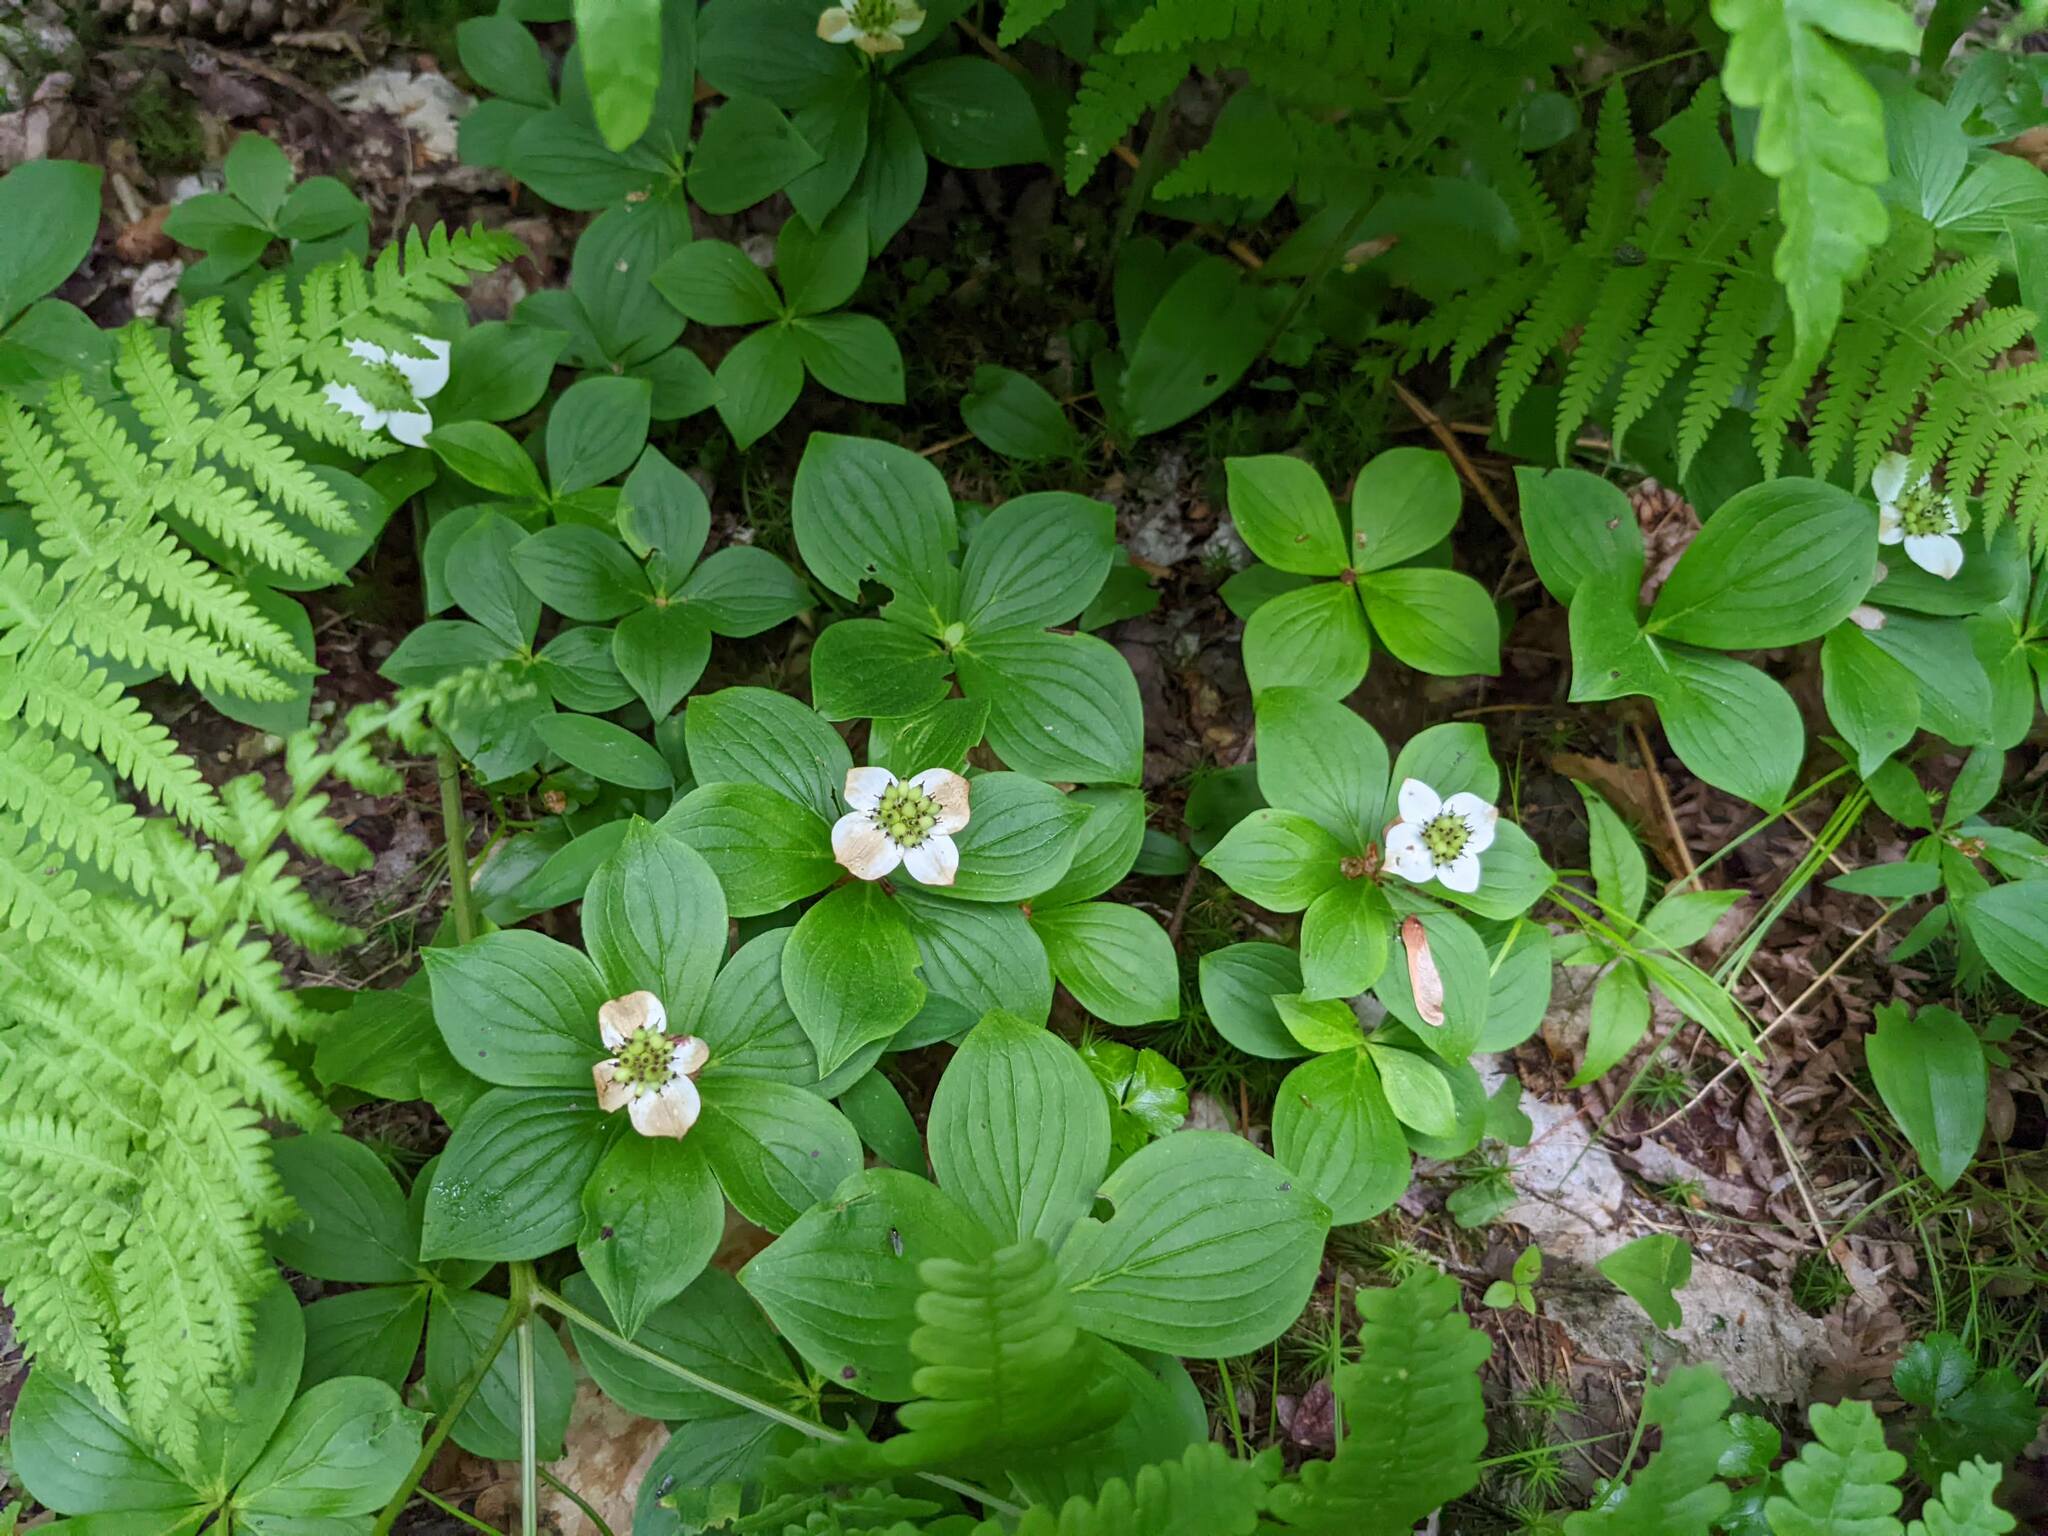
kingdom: Plantae
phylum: Tracheophyta
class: Magnoliopsida
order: Cornales
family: Cornaceae
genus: Cornus
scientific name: Cornus canadensis
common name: Creeping dogwood
